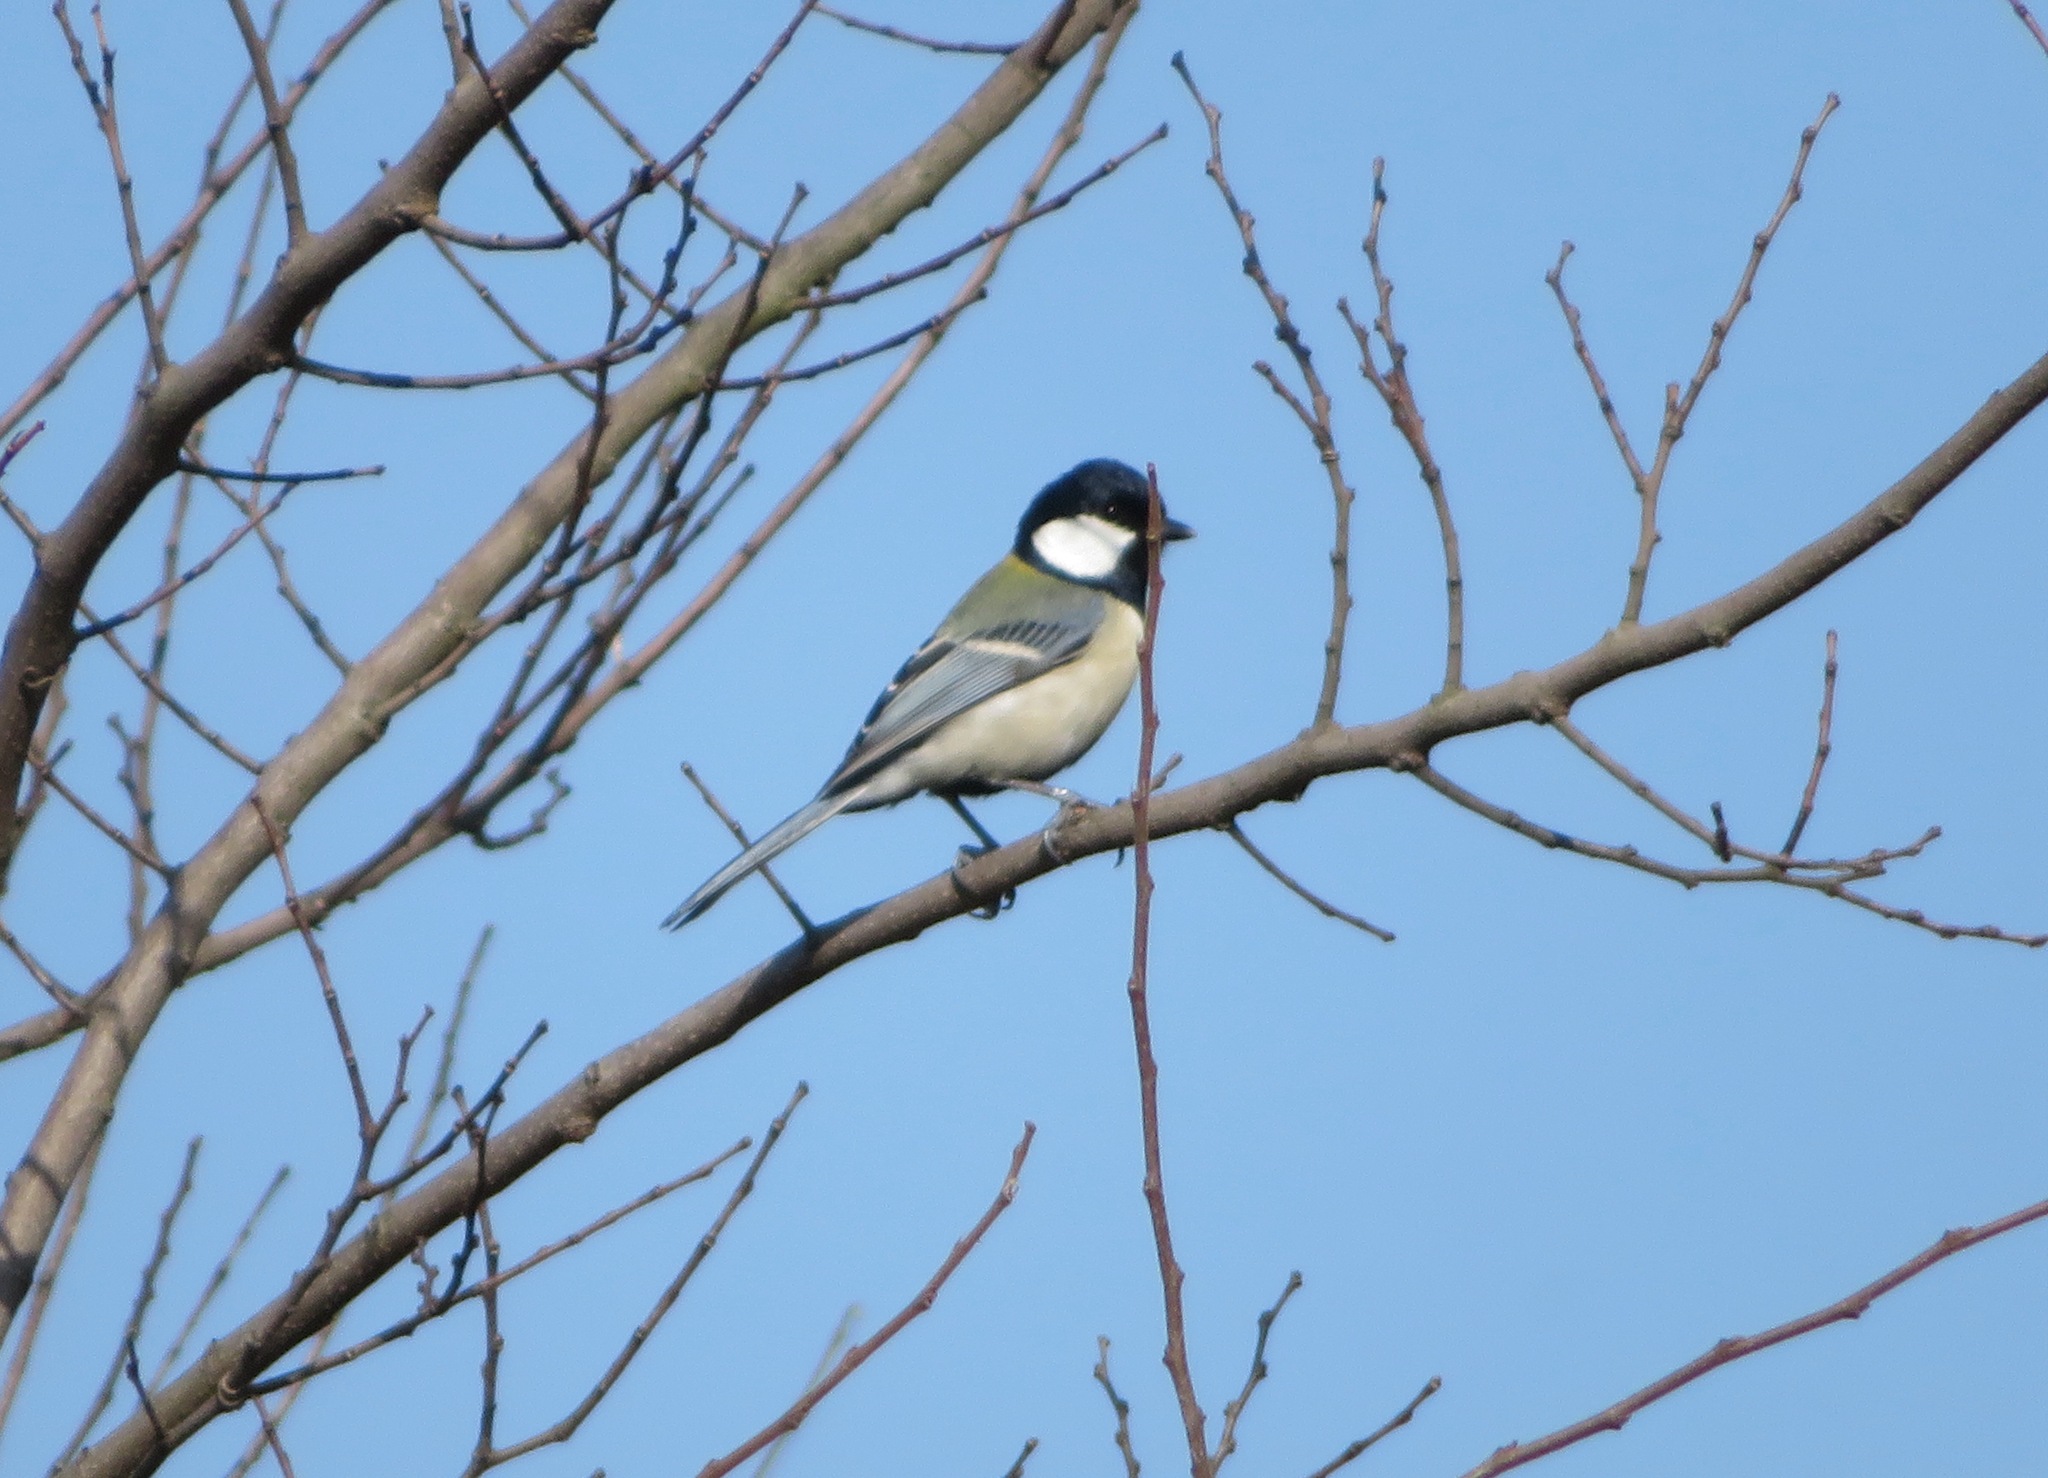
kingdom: Animalia
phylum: Chordata
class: Aves
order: Passeriformes
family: Paridae
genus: Parus
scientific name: Parus minor
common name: Japanese tit
